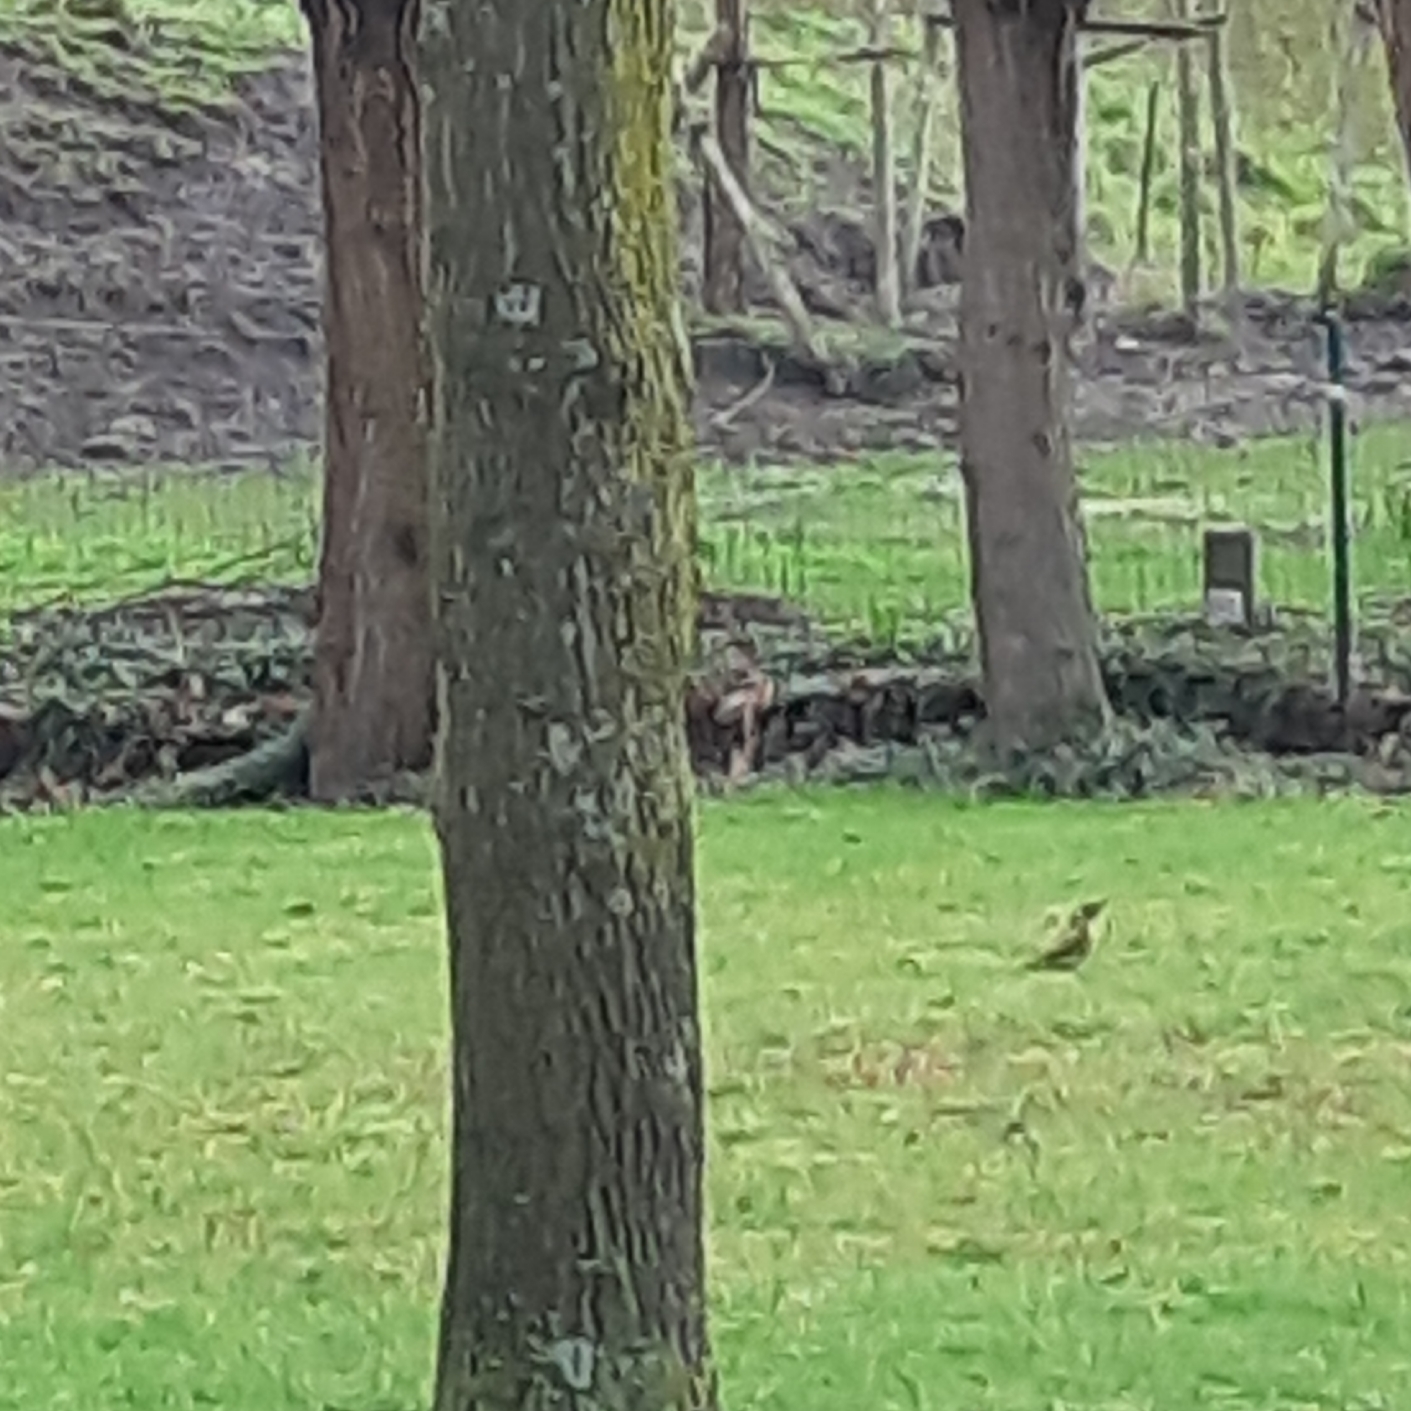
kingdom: Animalia
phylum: Chordata
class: Aves
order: Piciformes
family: Picidae
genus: Picus
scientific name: Picus viridis
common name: European green woodpecker
